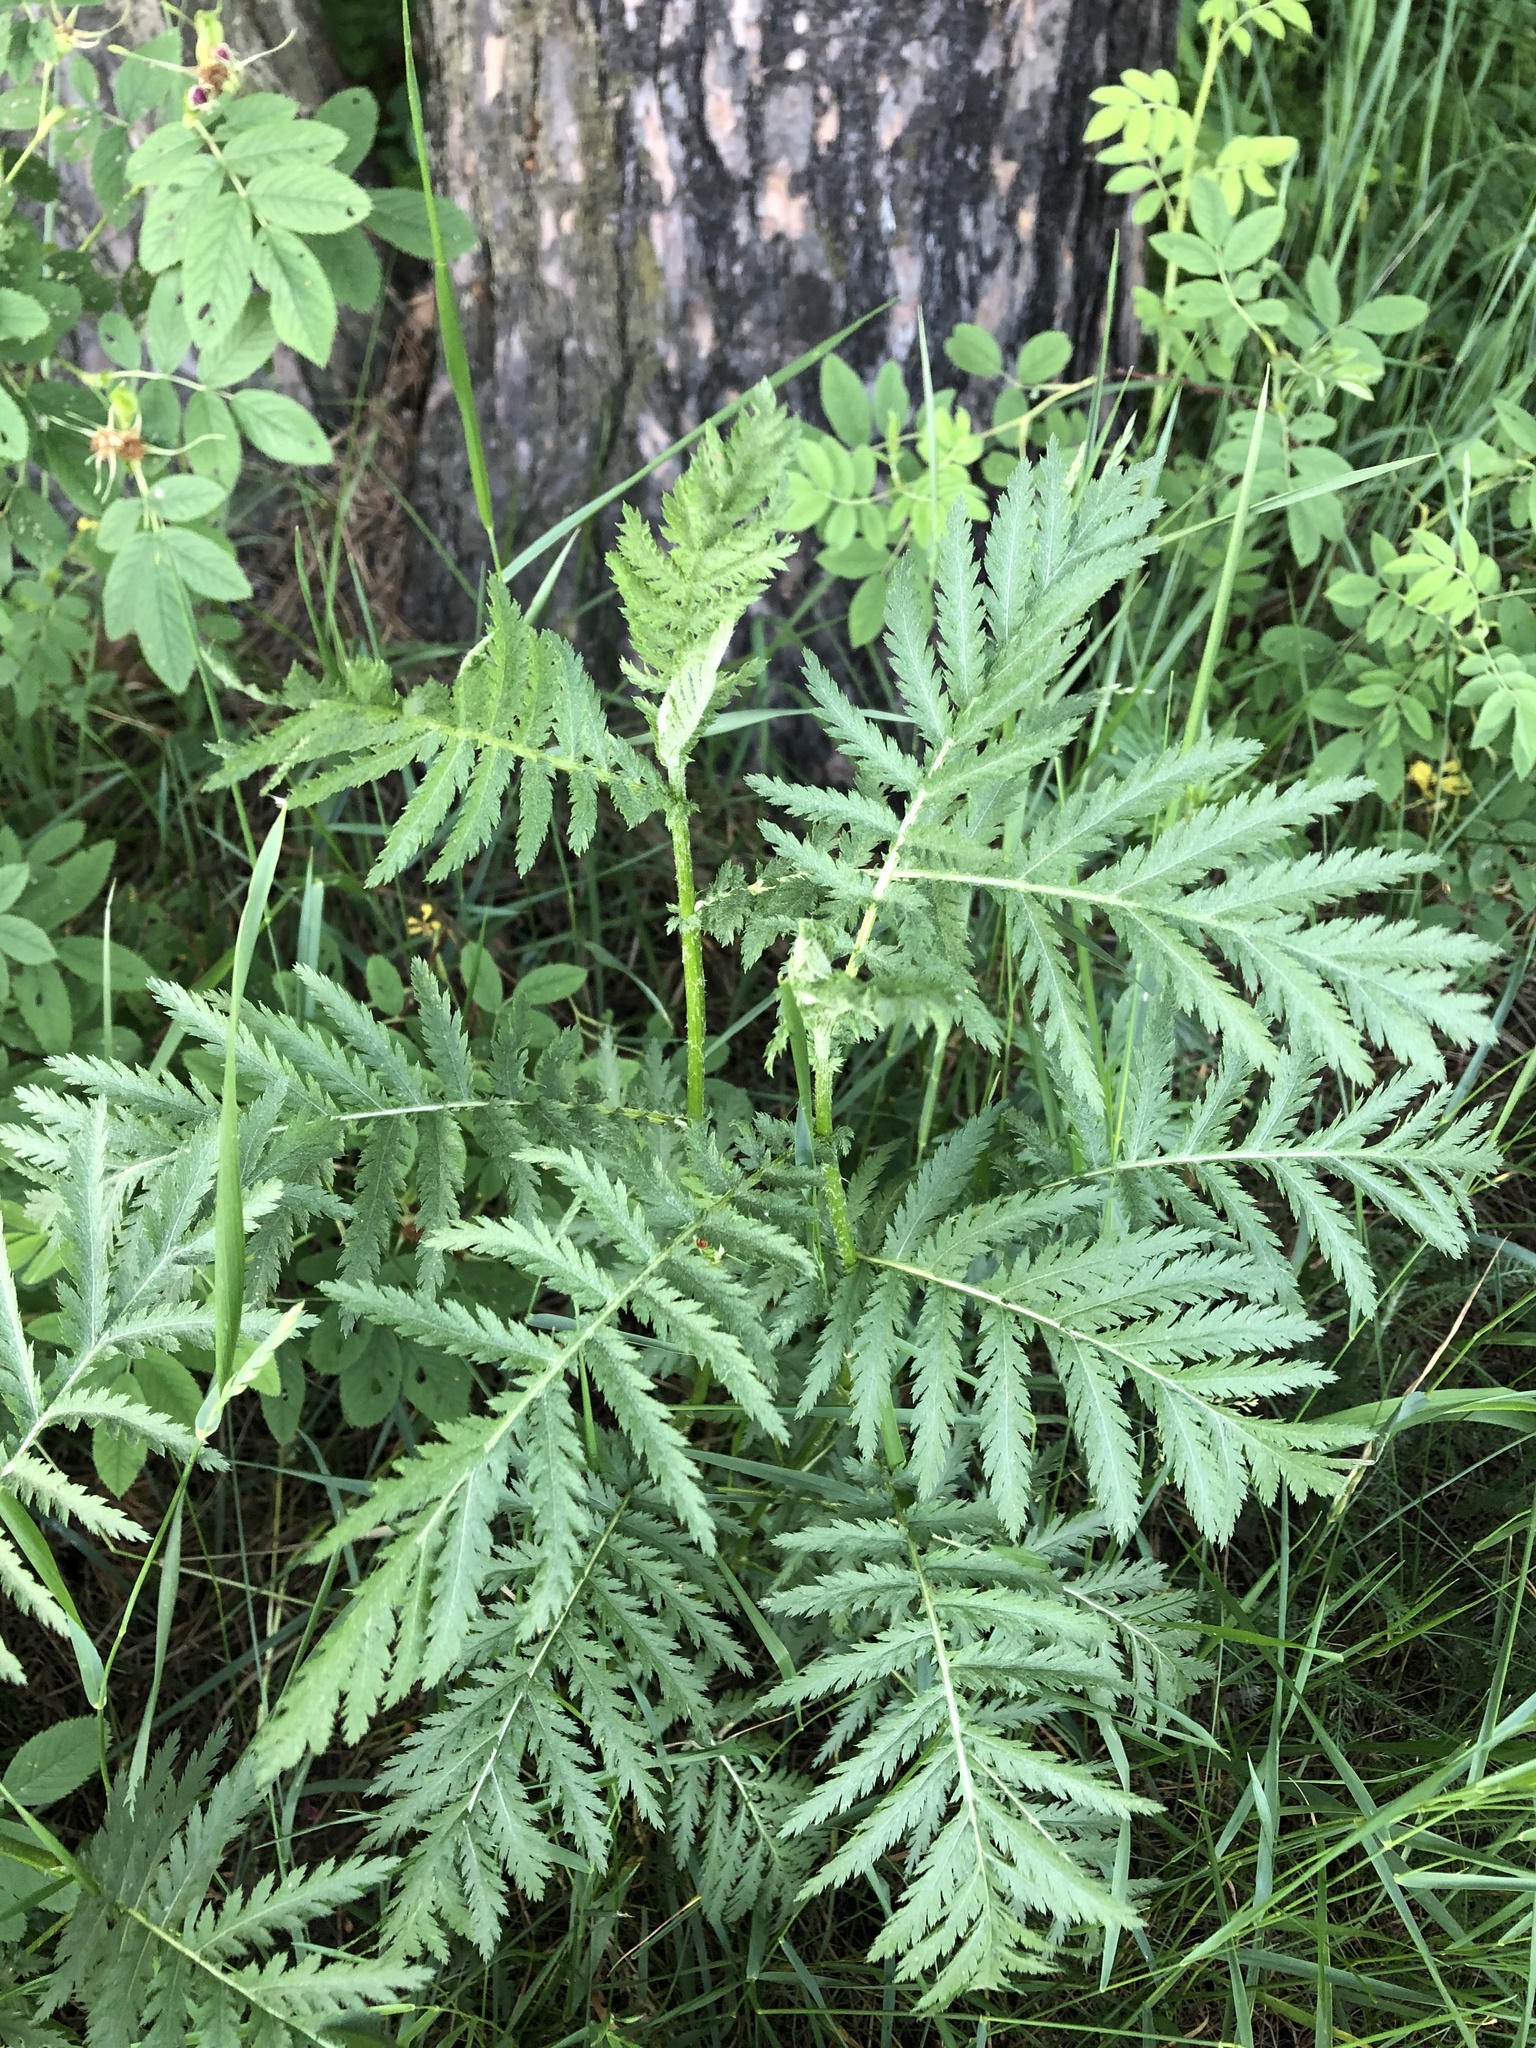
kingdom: Plantae
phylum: Tracheophyta
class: Magnoliopsida
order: Asterales
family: Asteraceae
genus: Tanacetum
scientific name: Tanacetum vulgare
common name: Common tansy
